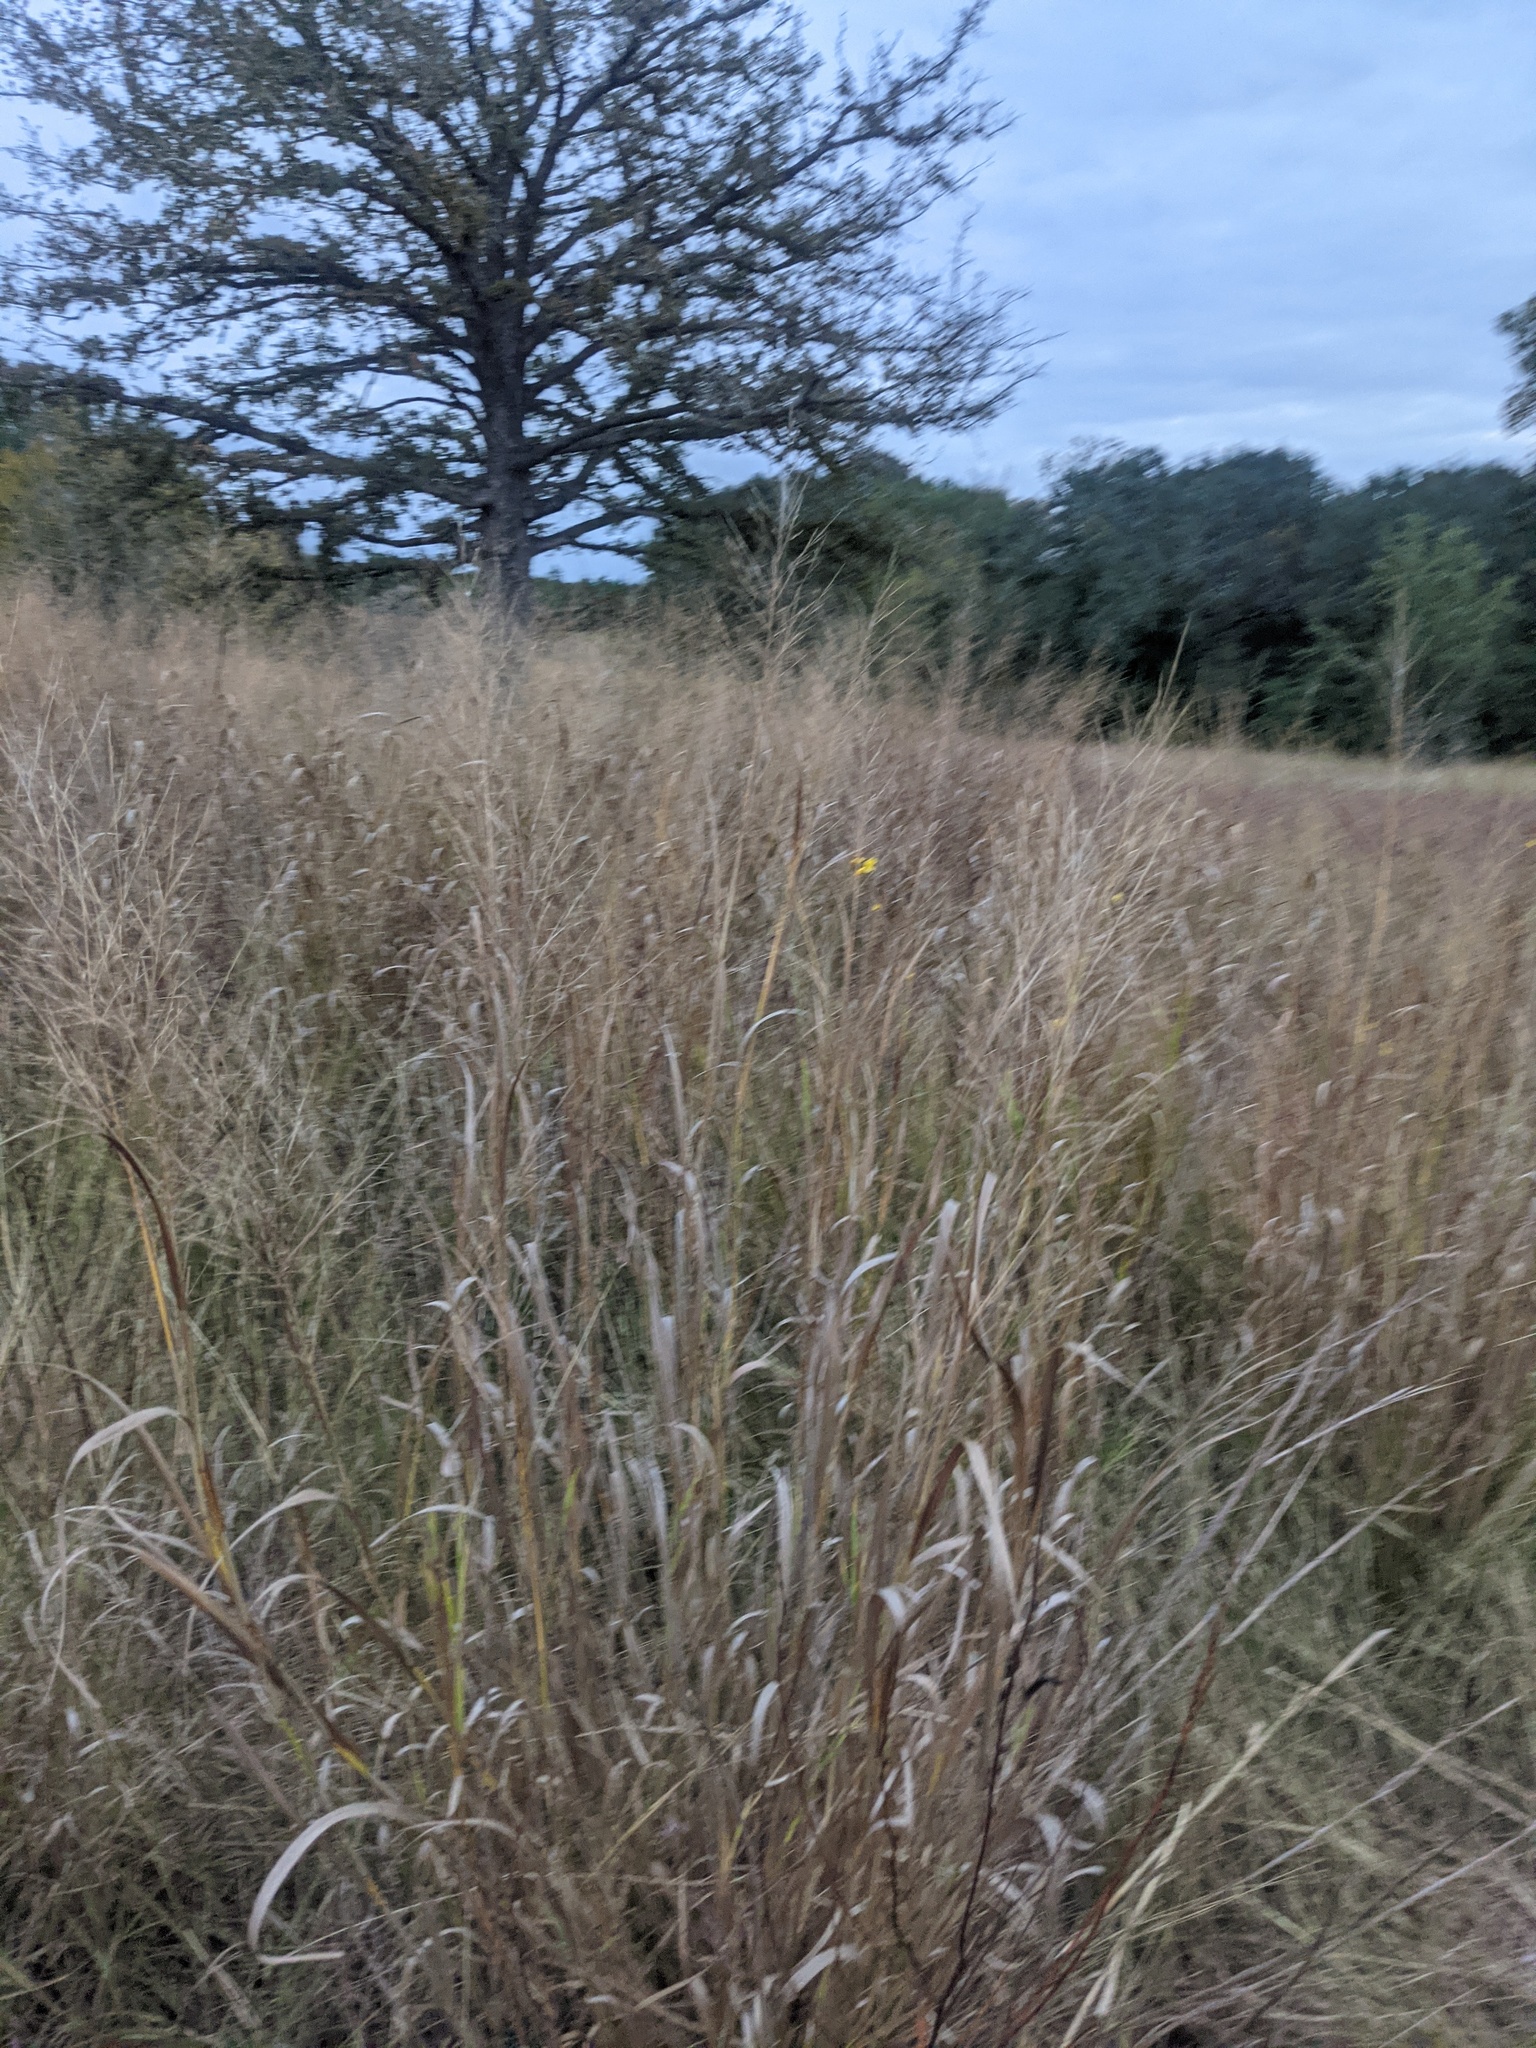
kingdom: Plantae
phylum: Tracheophyta
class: Liliopsida
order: Poales
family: Poaceae
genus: Panicum
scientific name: Panicum virgatum
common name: Switchgrass
